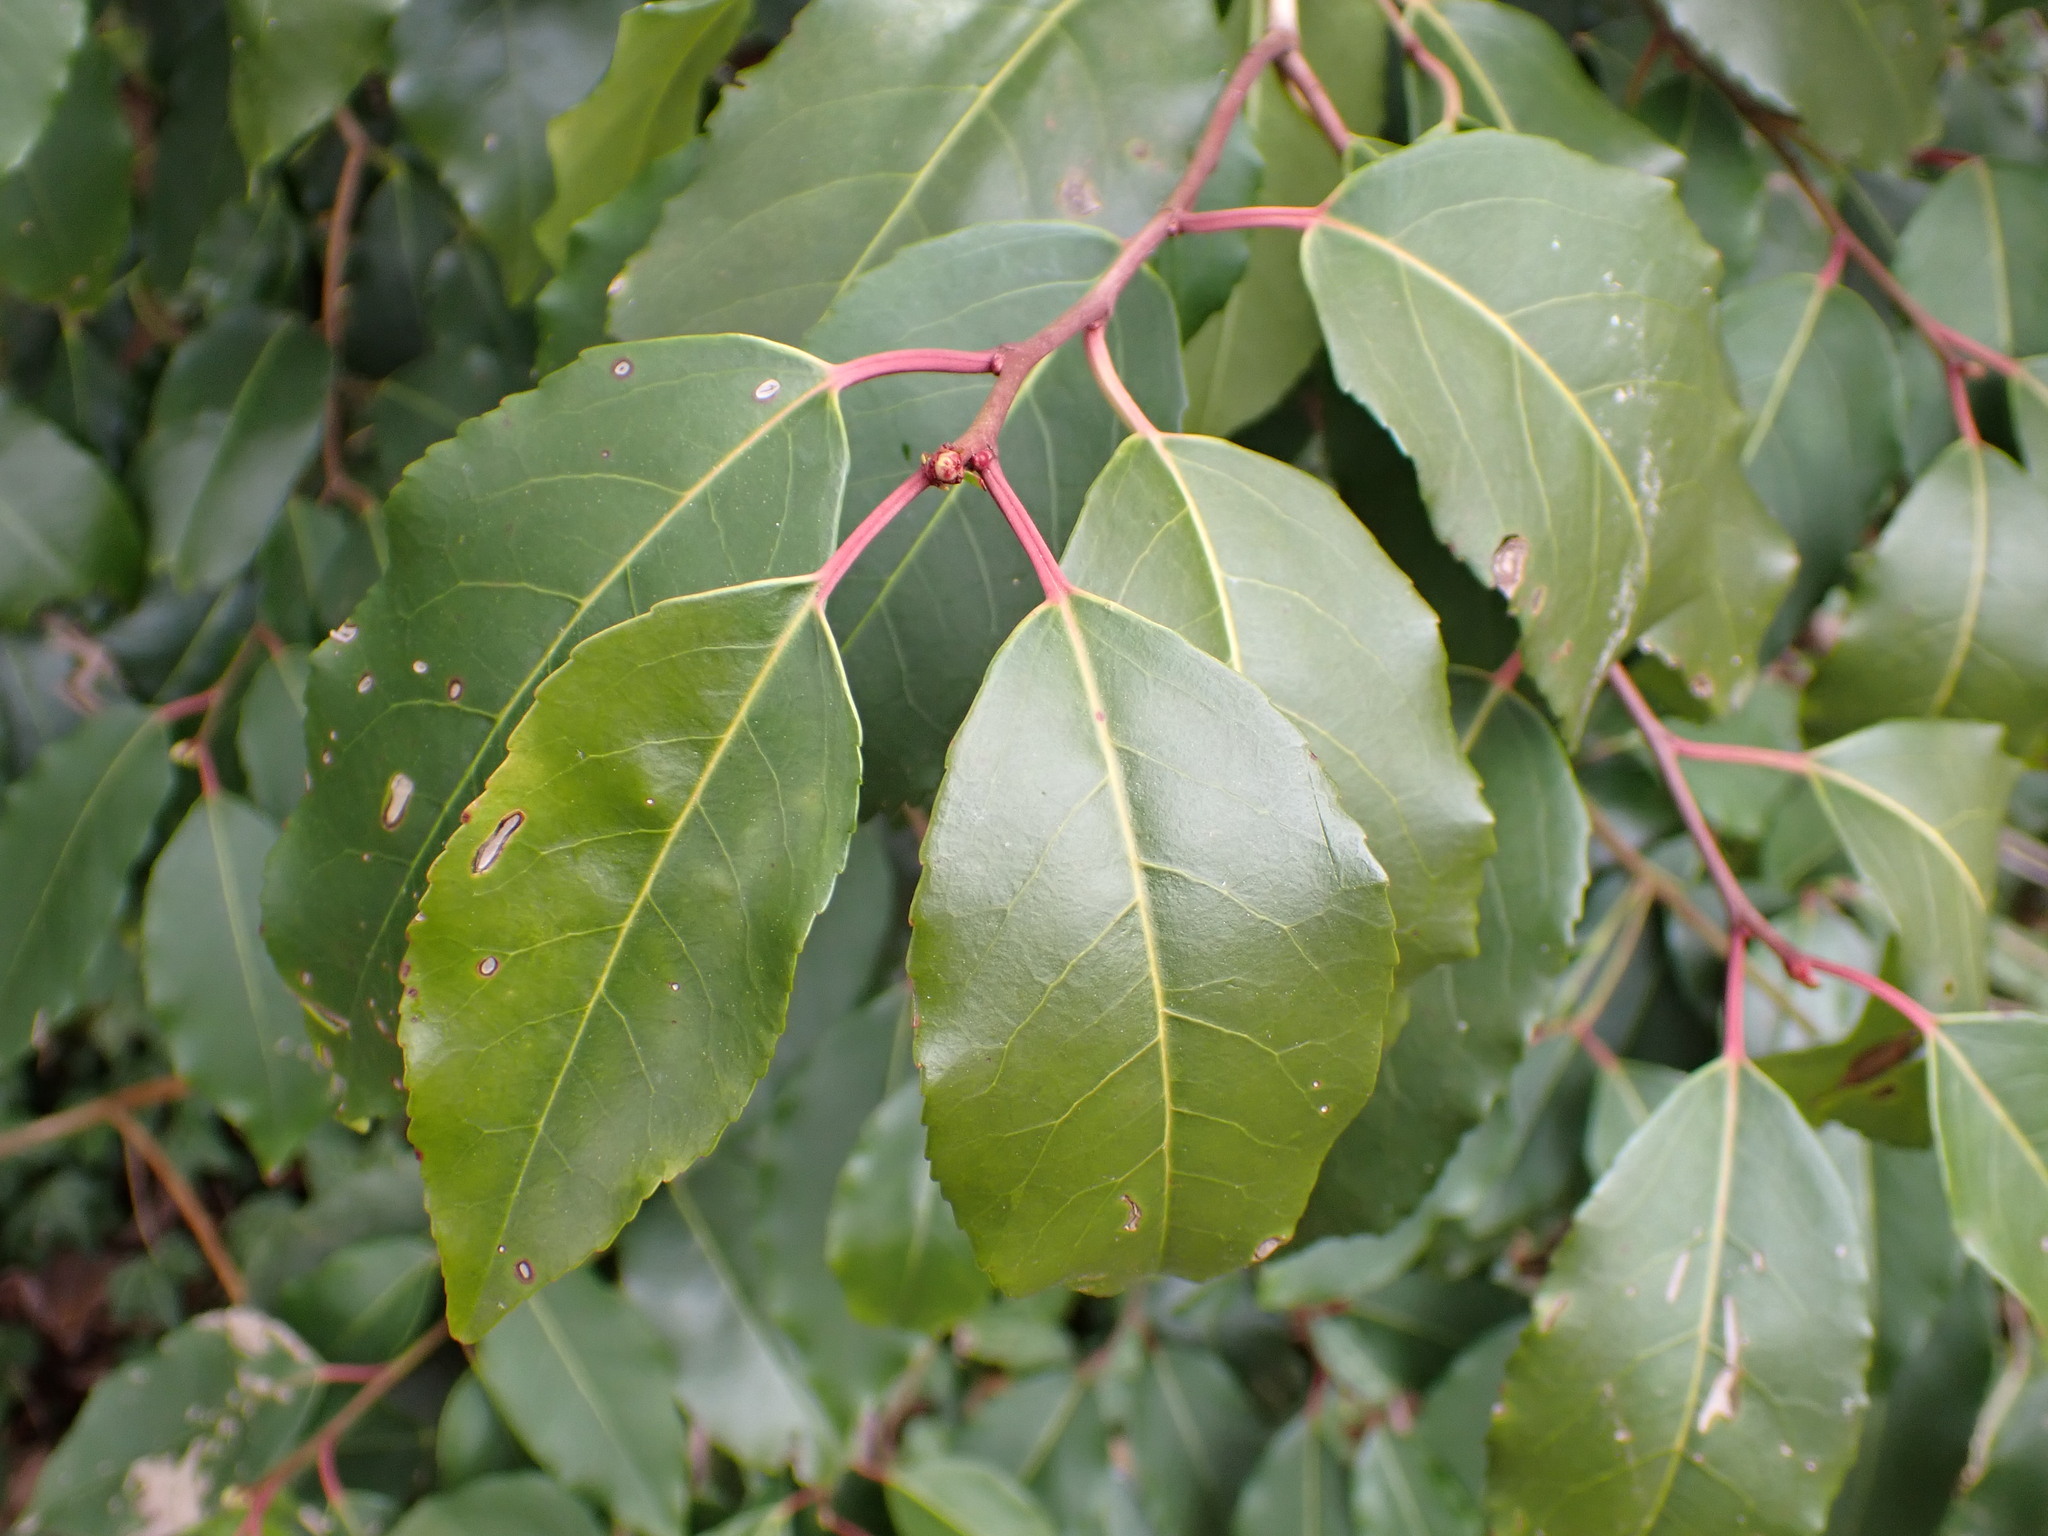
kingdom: Plantae
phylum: Tracheophyta
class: Magnoliopsida
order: Rosales
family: Rosaceae
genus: Prunus
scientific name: Prunus lusitanica
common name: Portugal laurel
